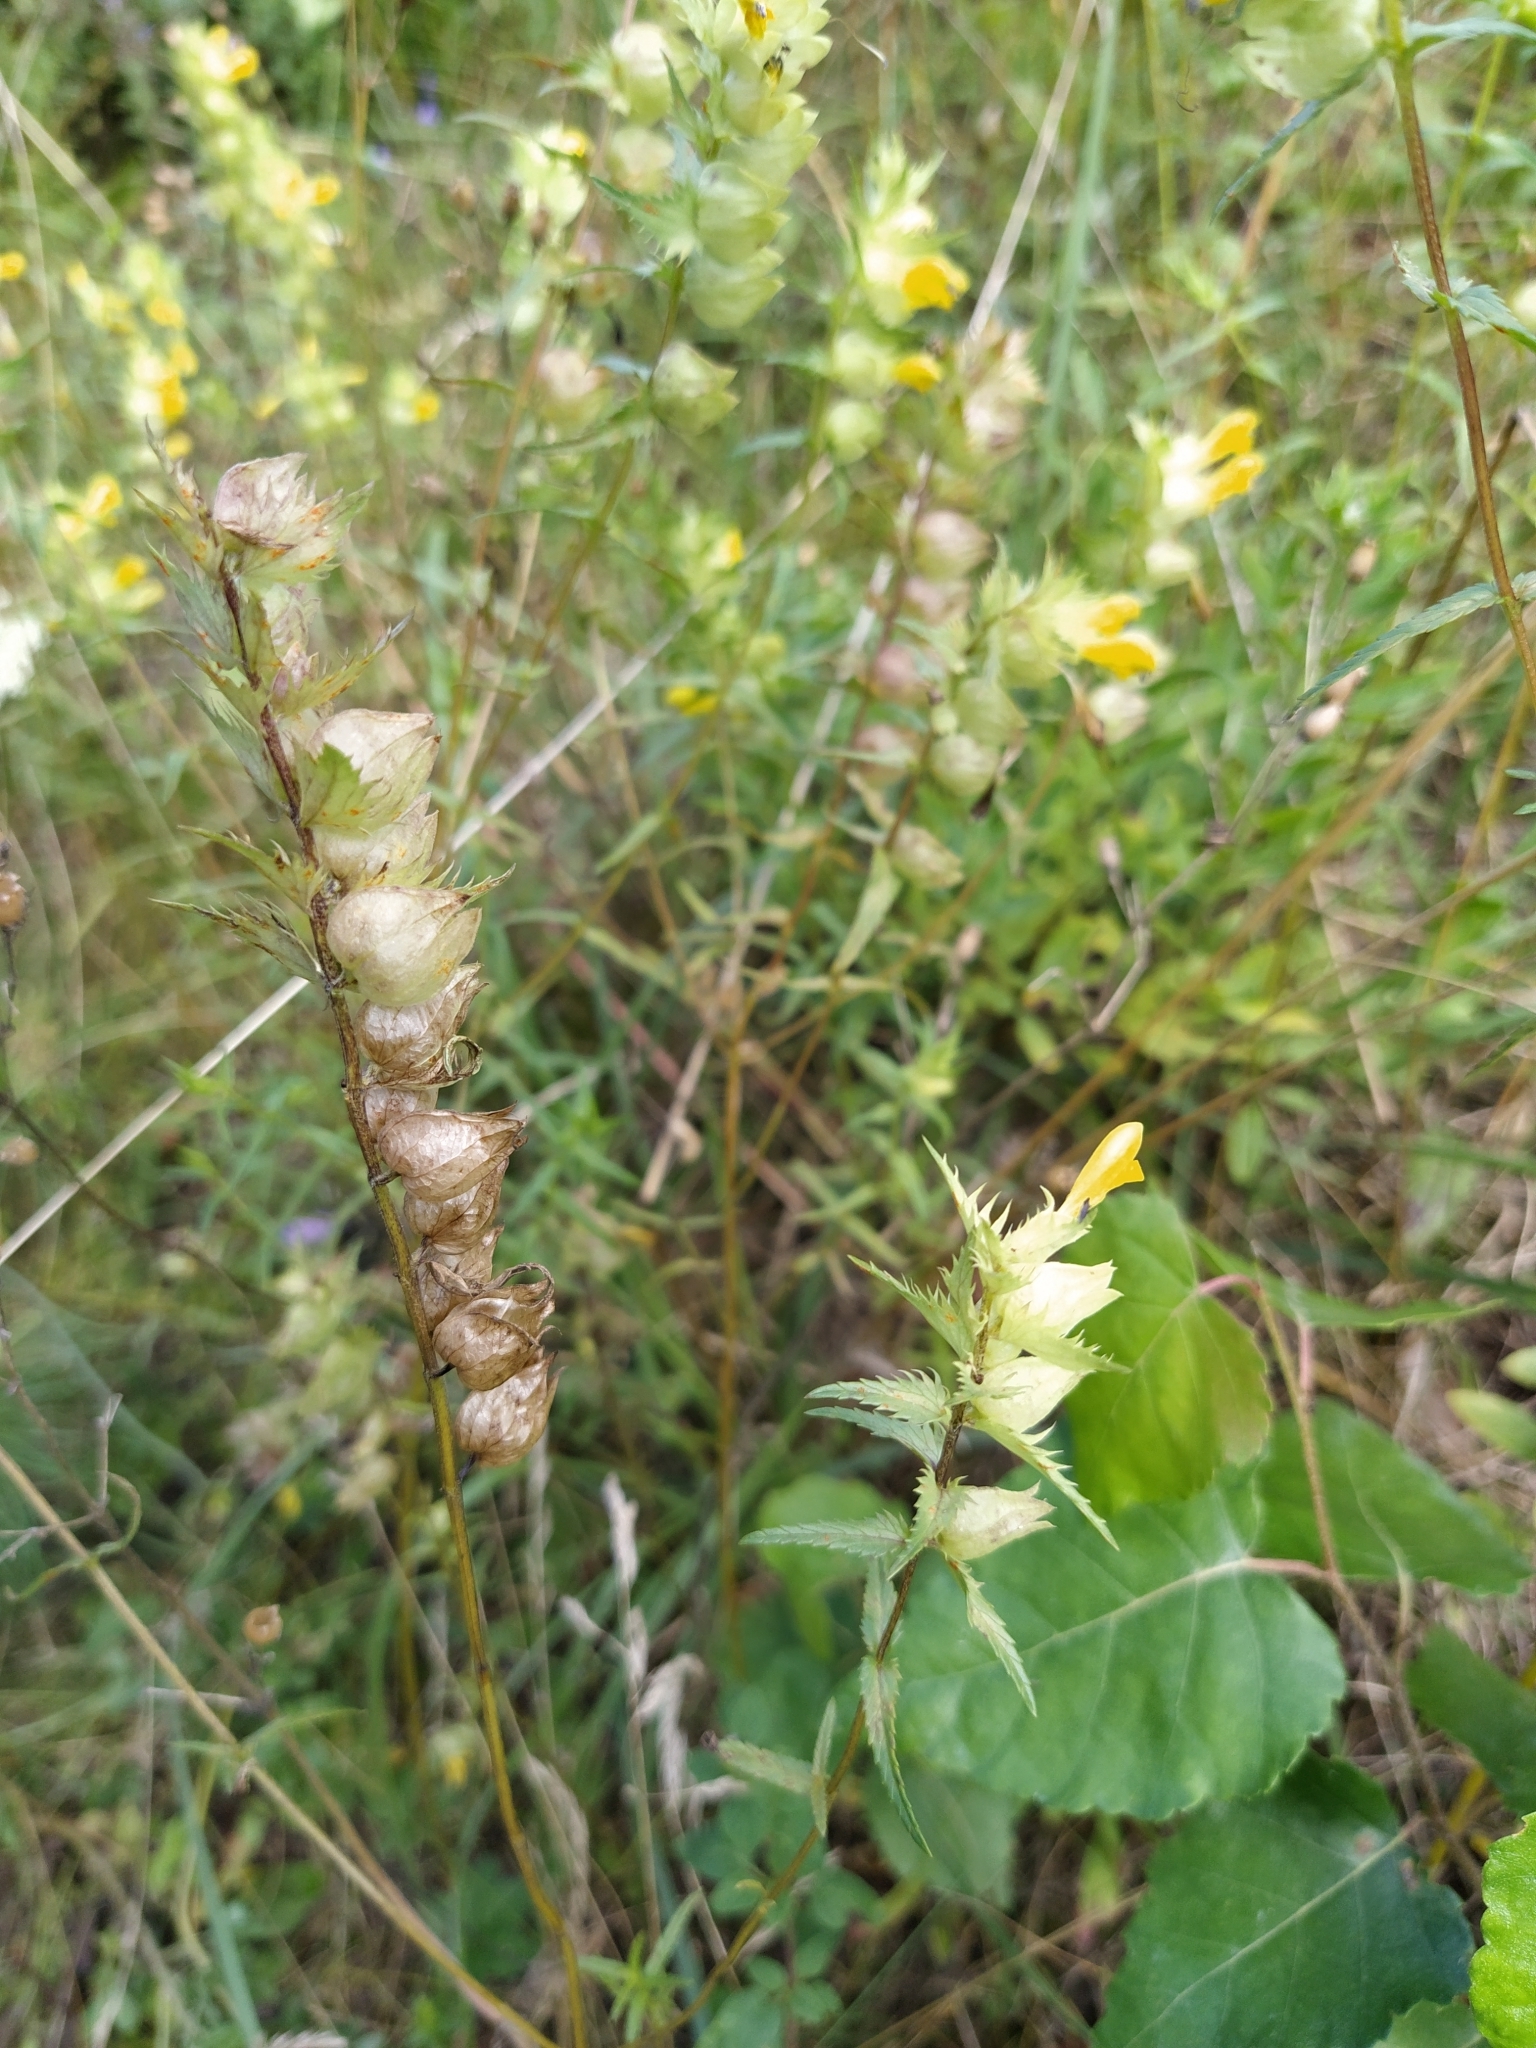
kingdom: Plantae
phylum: Tracheophyta
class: Magnoliopsida
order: Lamiales
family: Orobanchaceae
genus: Rhinanthus
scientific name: Rhinanthus serotinus
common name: Late-flowering yellow rattle
